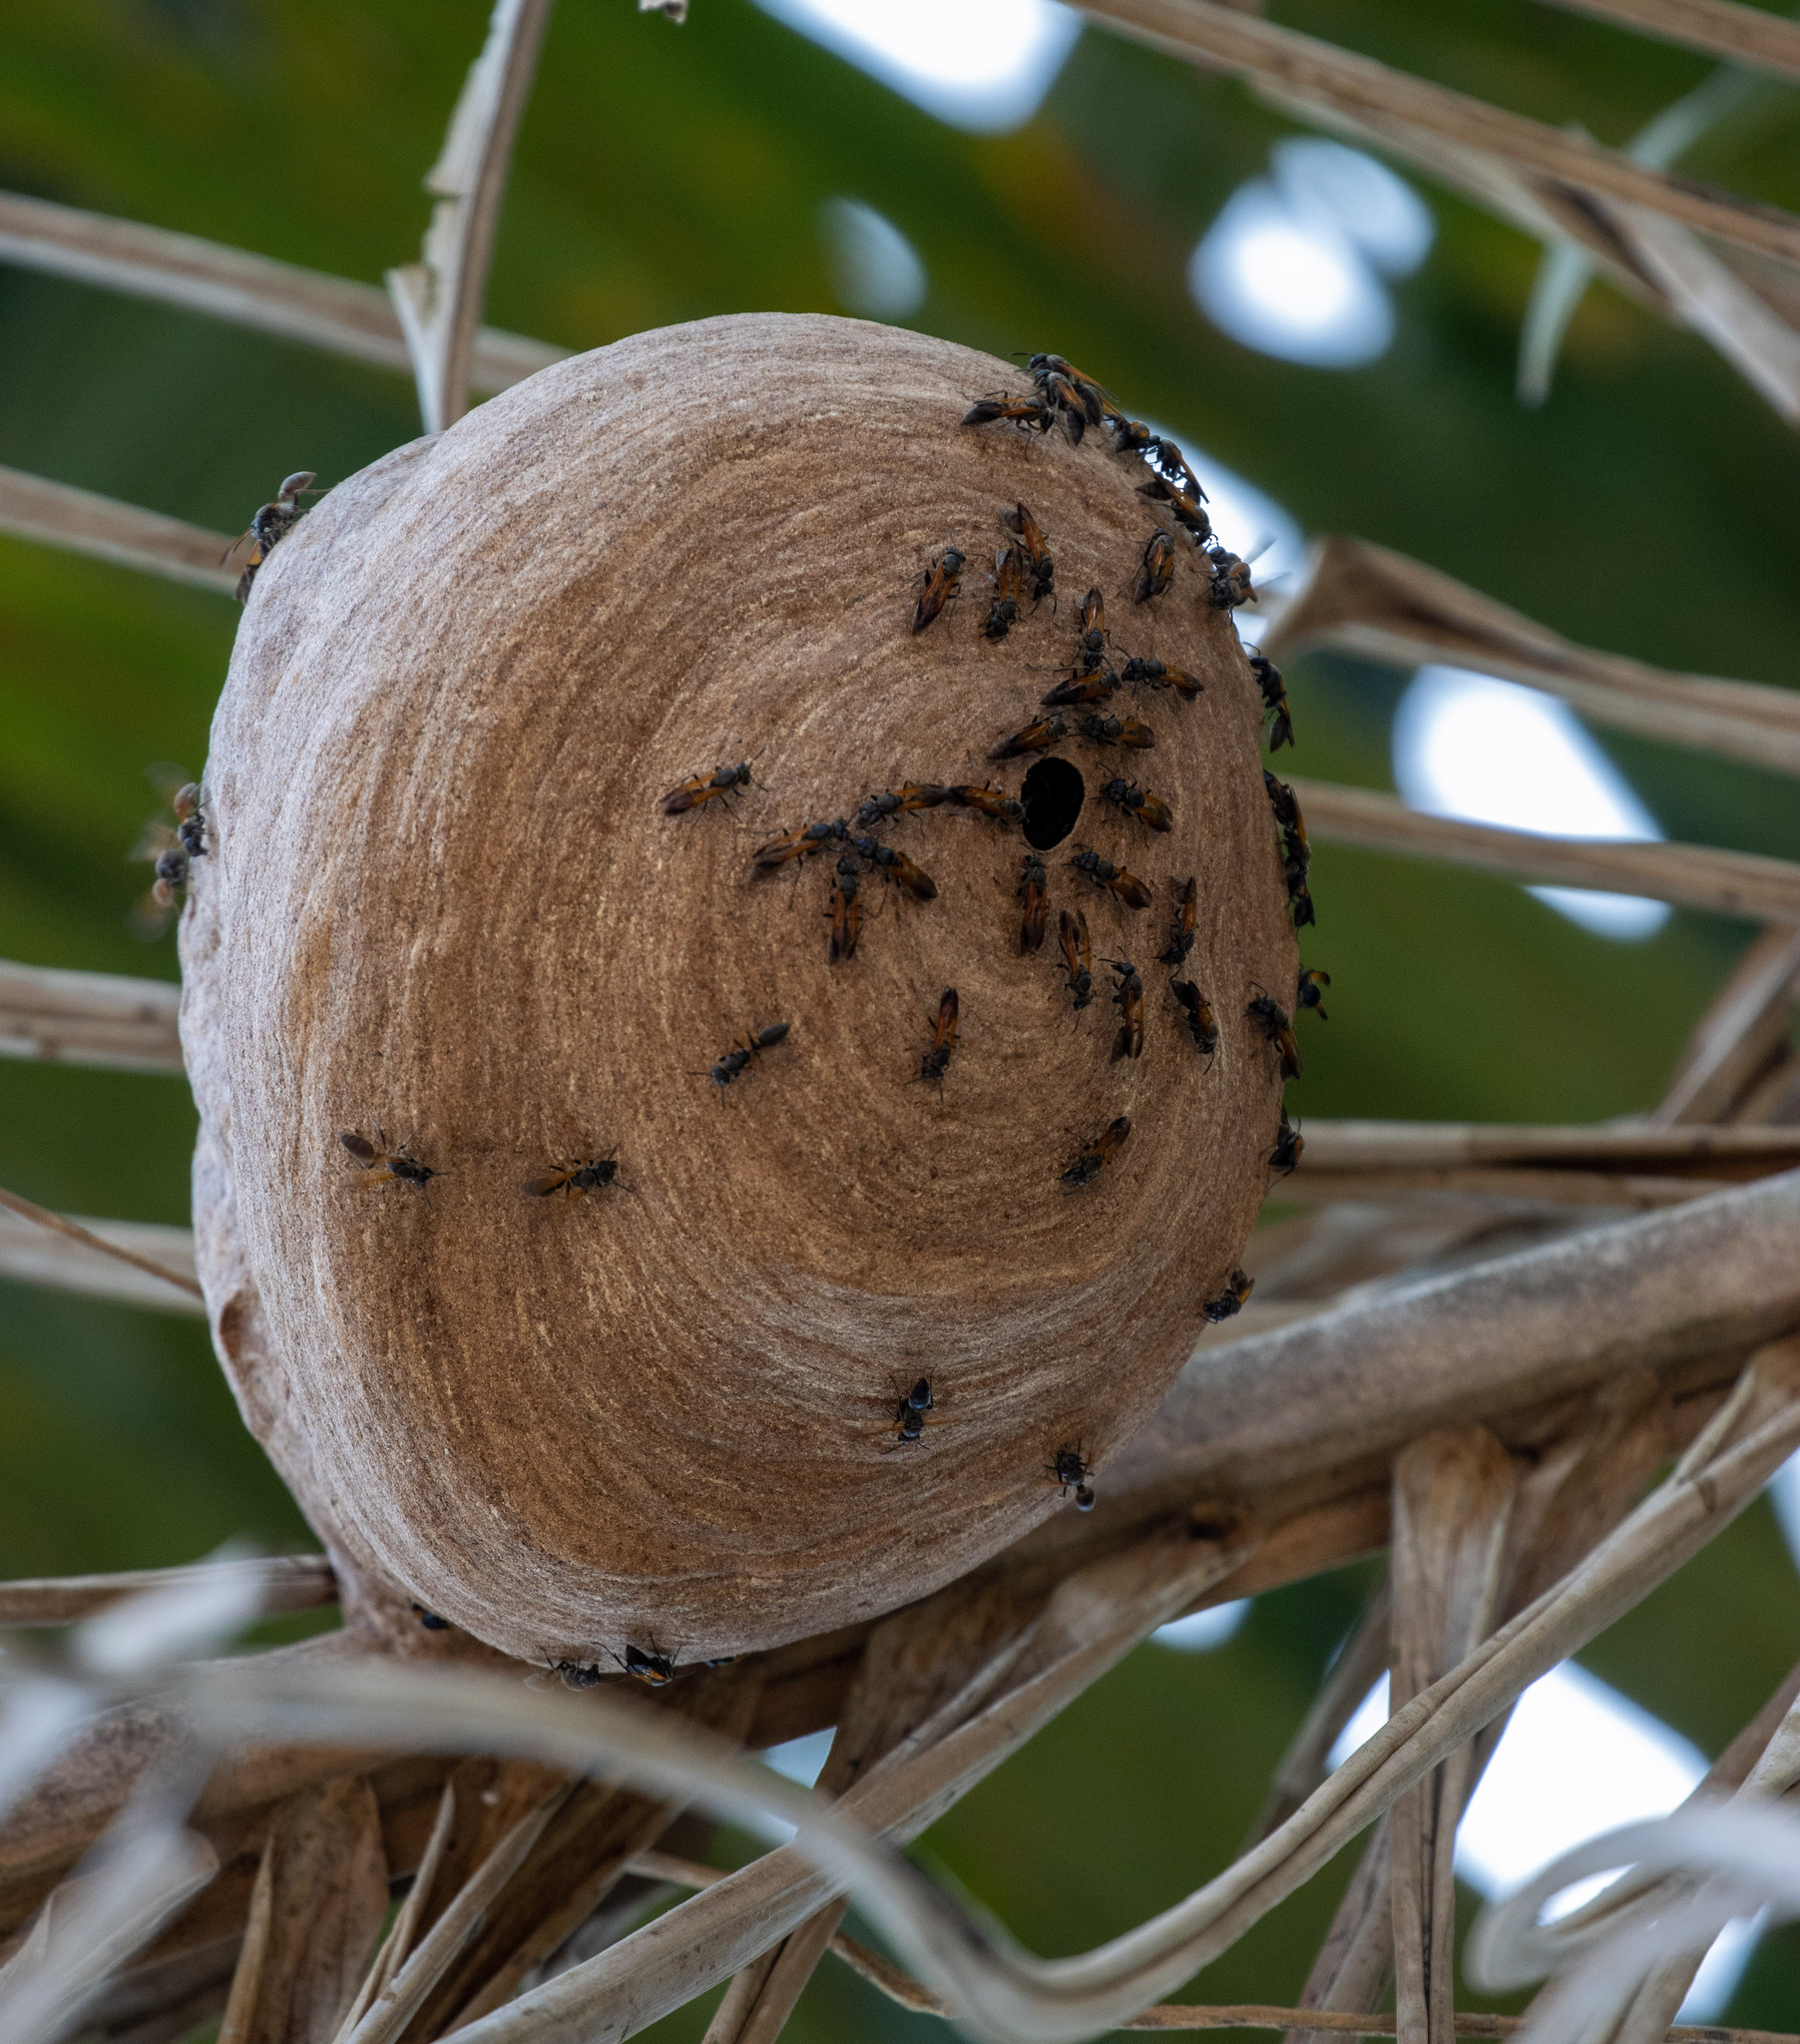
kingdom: Animalia
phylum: Arthropoda
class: Insecta
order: Hymenoptera
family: Eumenidae
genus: Polybia
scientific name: Polybia rejecta
